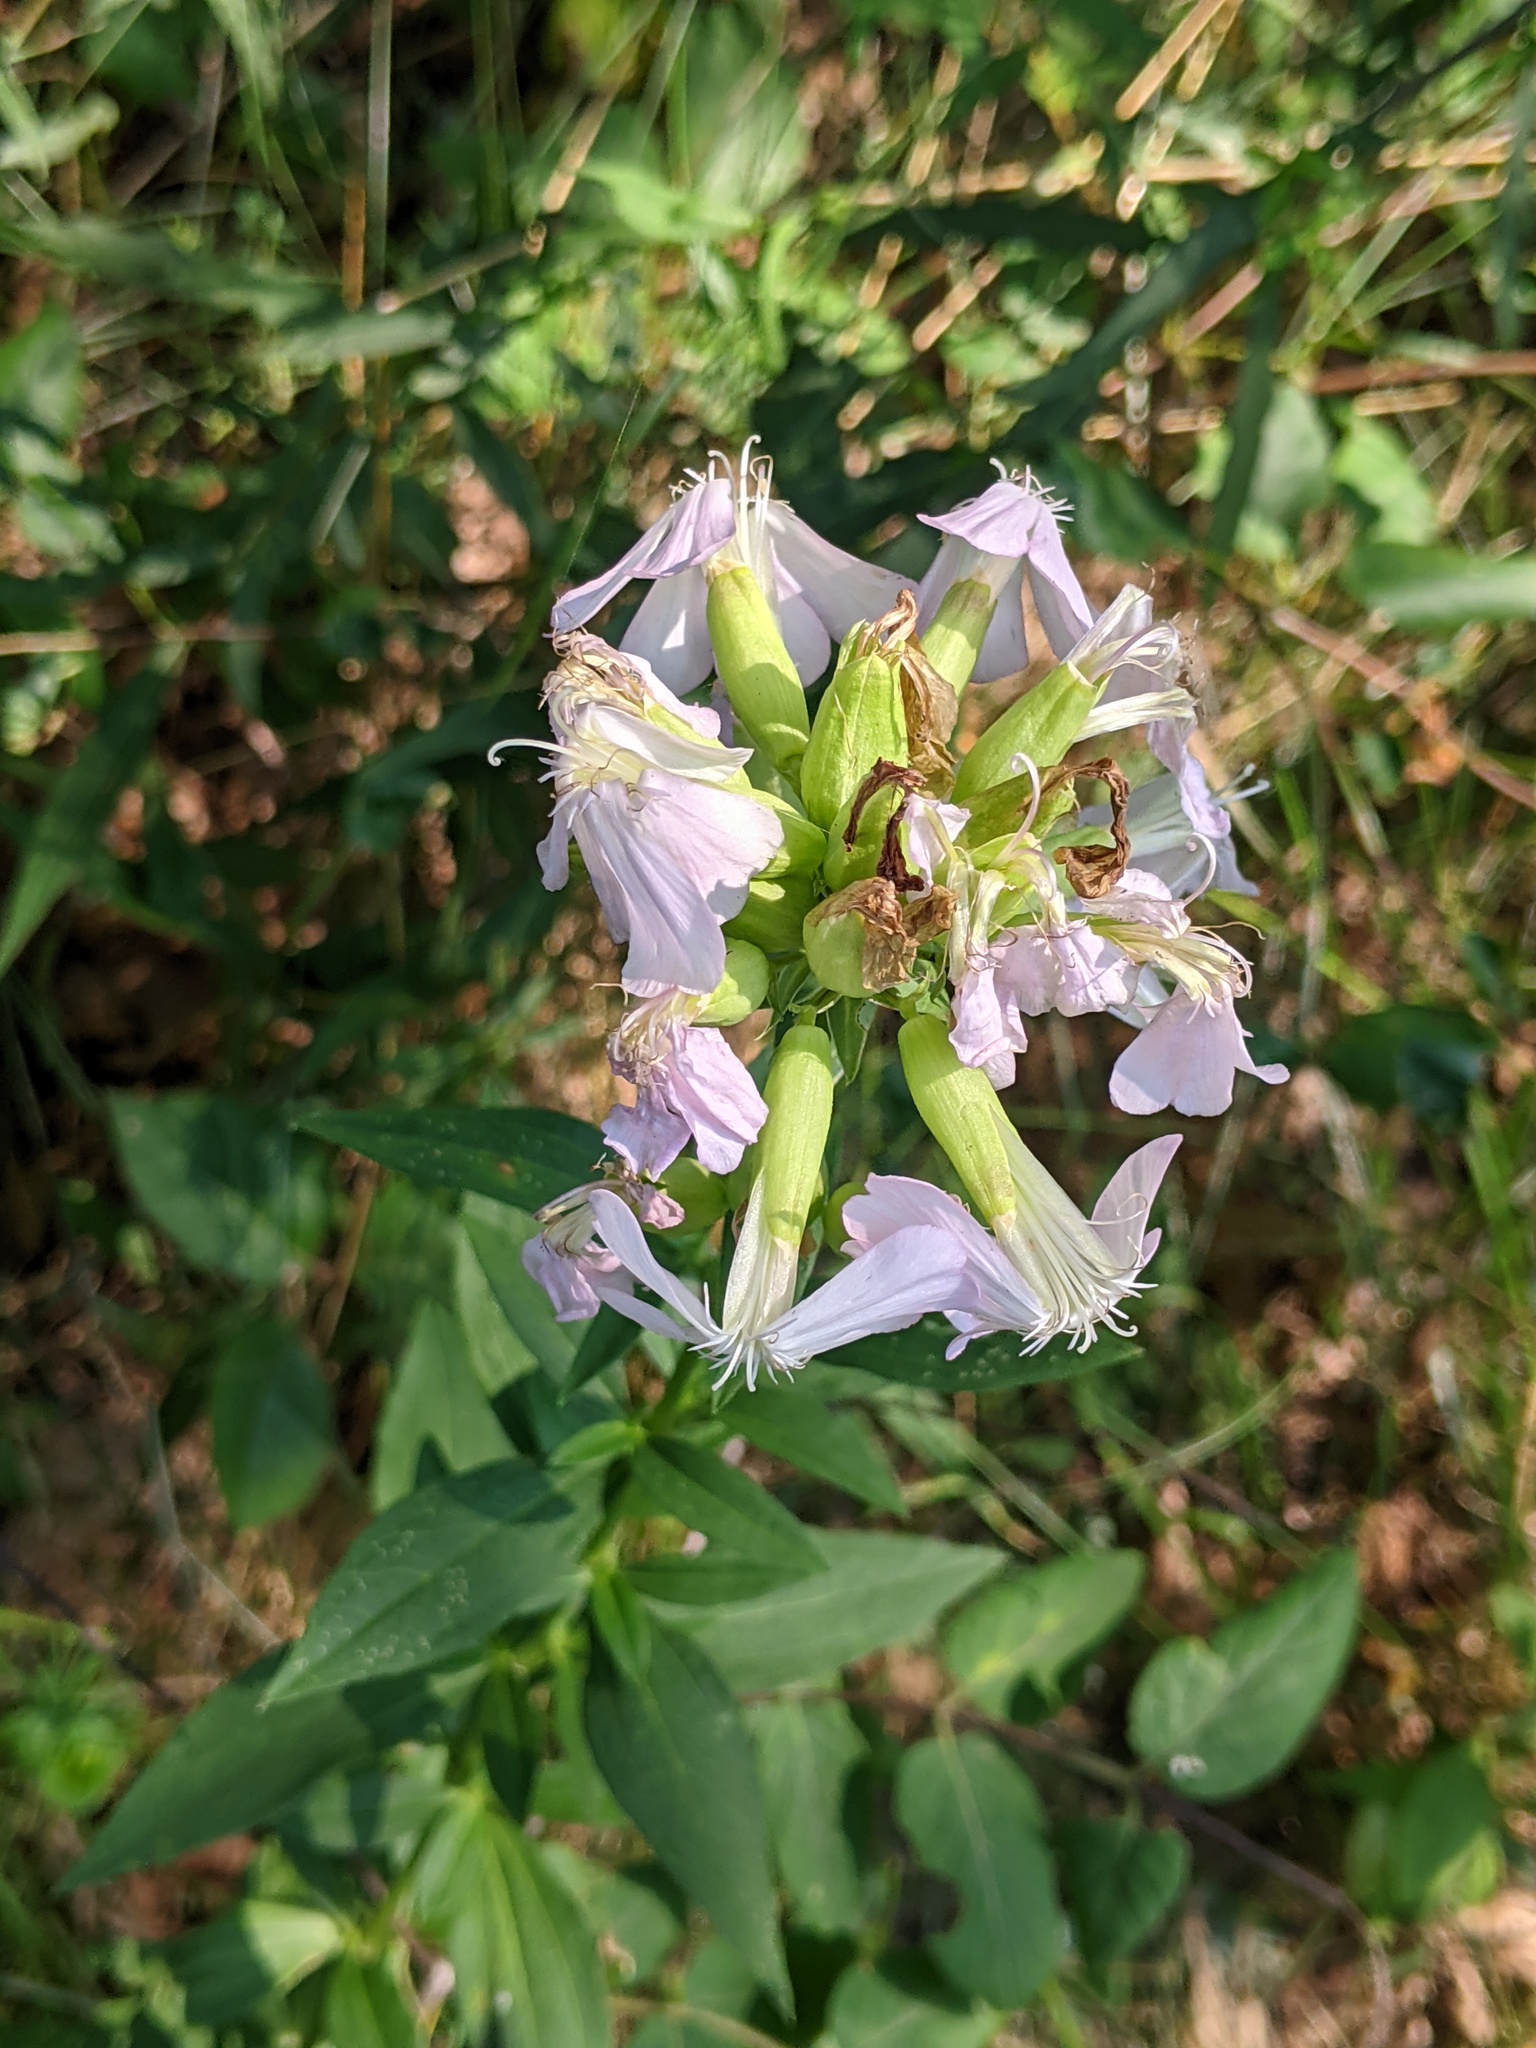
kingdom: Plantae
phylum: Tracheophyta
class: Magnoliopsida
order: Caryophyllales
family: Caryophyllaceae
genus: Saponaria
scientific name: Saponaria officinalis
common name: Soapwort
